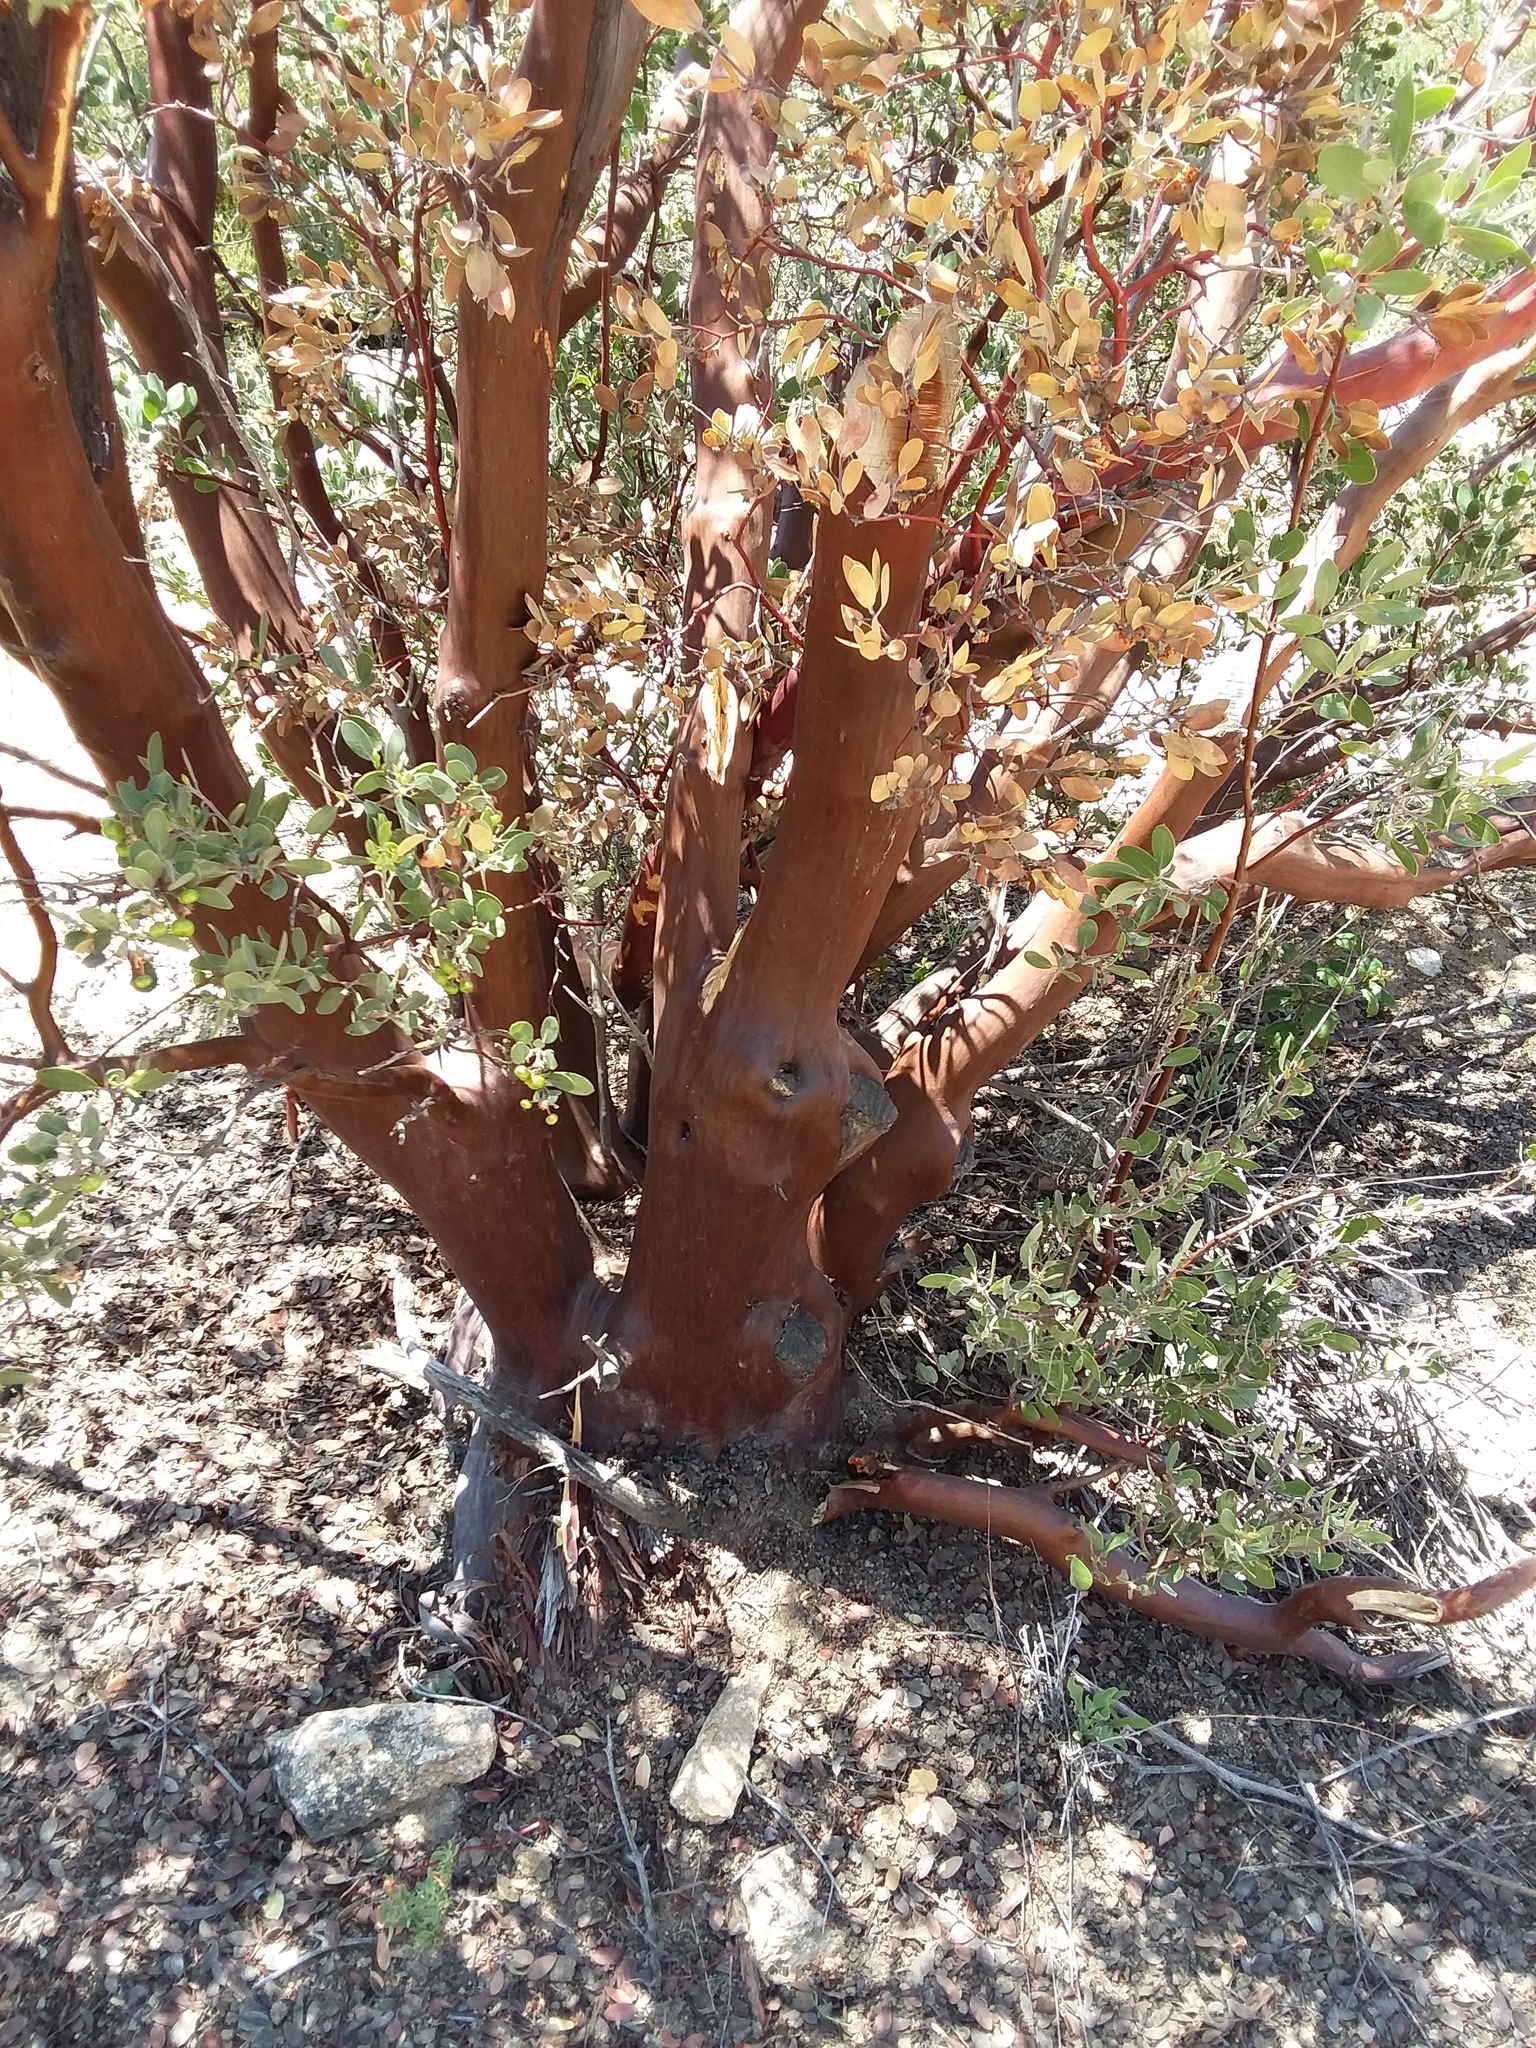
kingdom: Plantae
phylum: Tracheophyta
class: Magnoliopsida
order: Ericales
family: Ericaceae
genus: Arctostaphylos
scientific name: Arctostaphylos pungens
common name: Mexican manzanita
